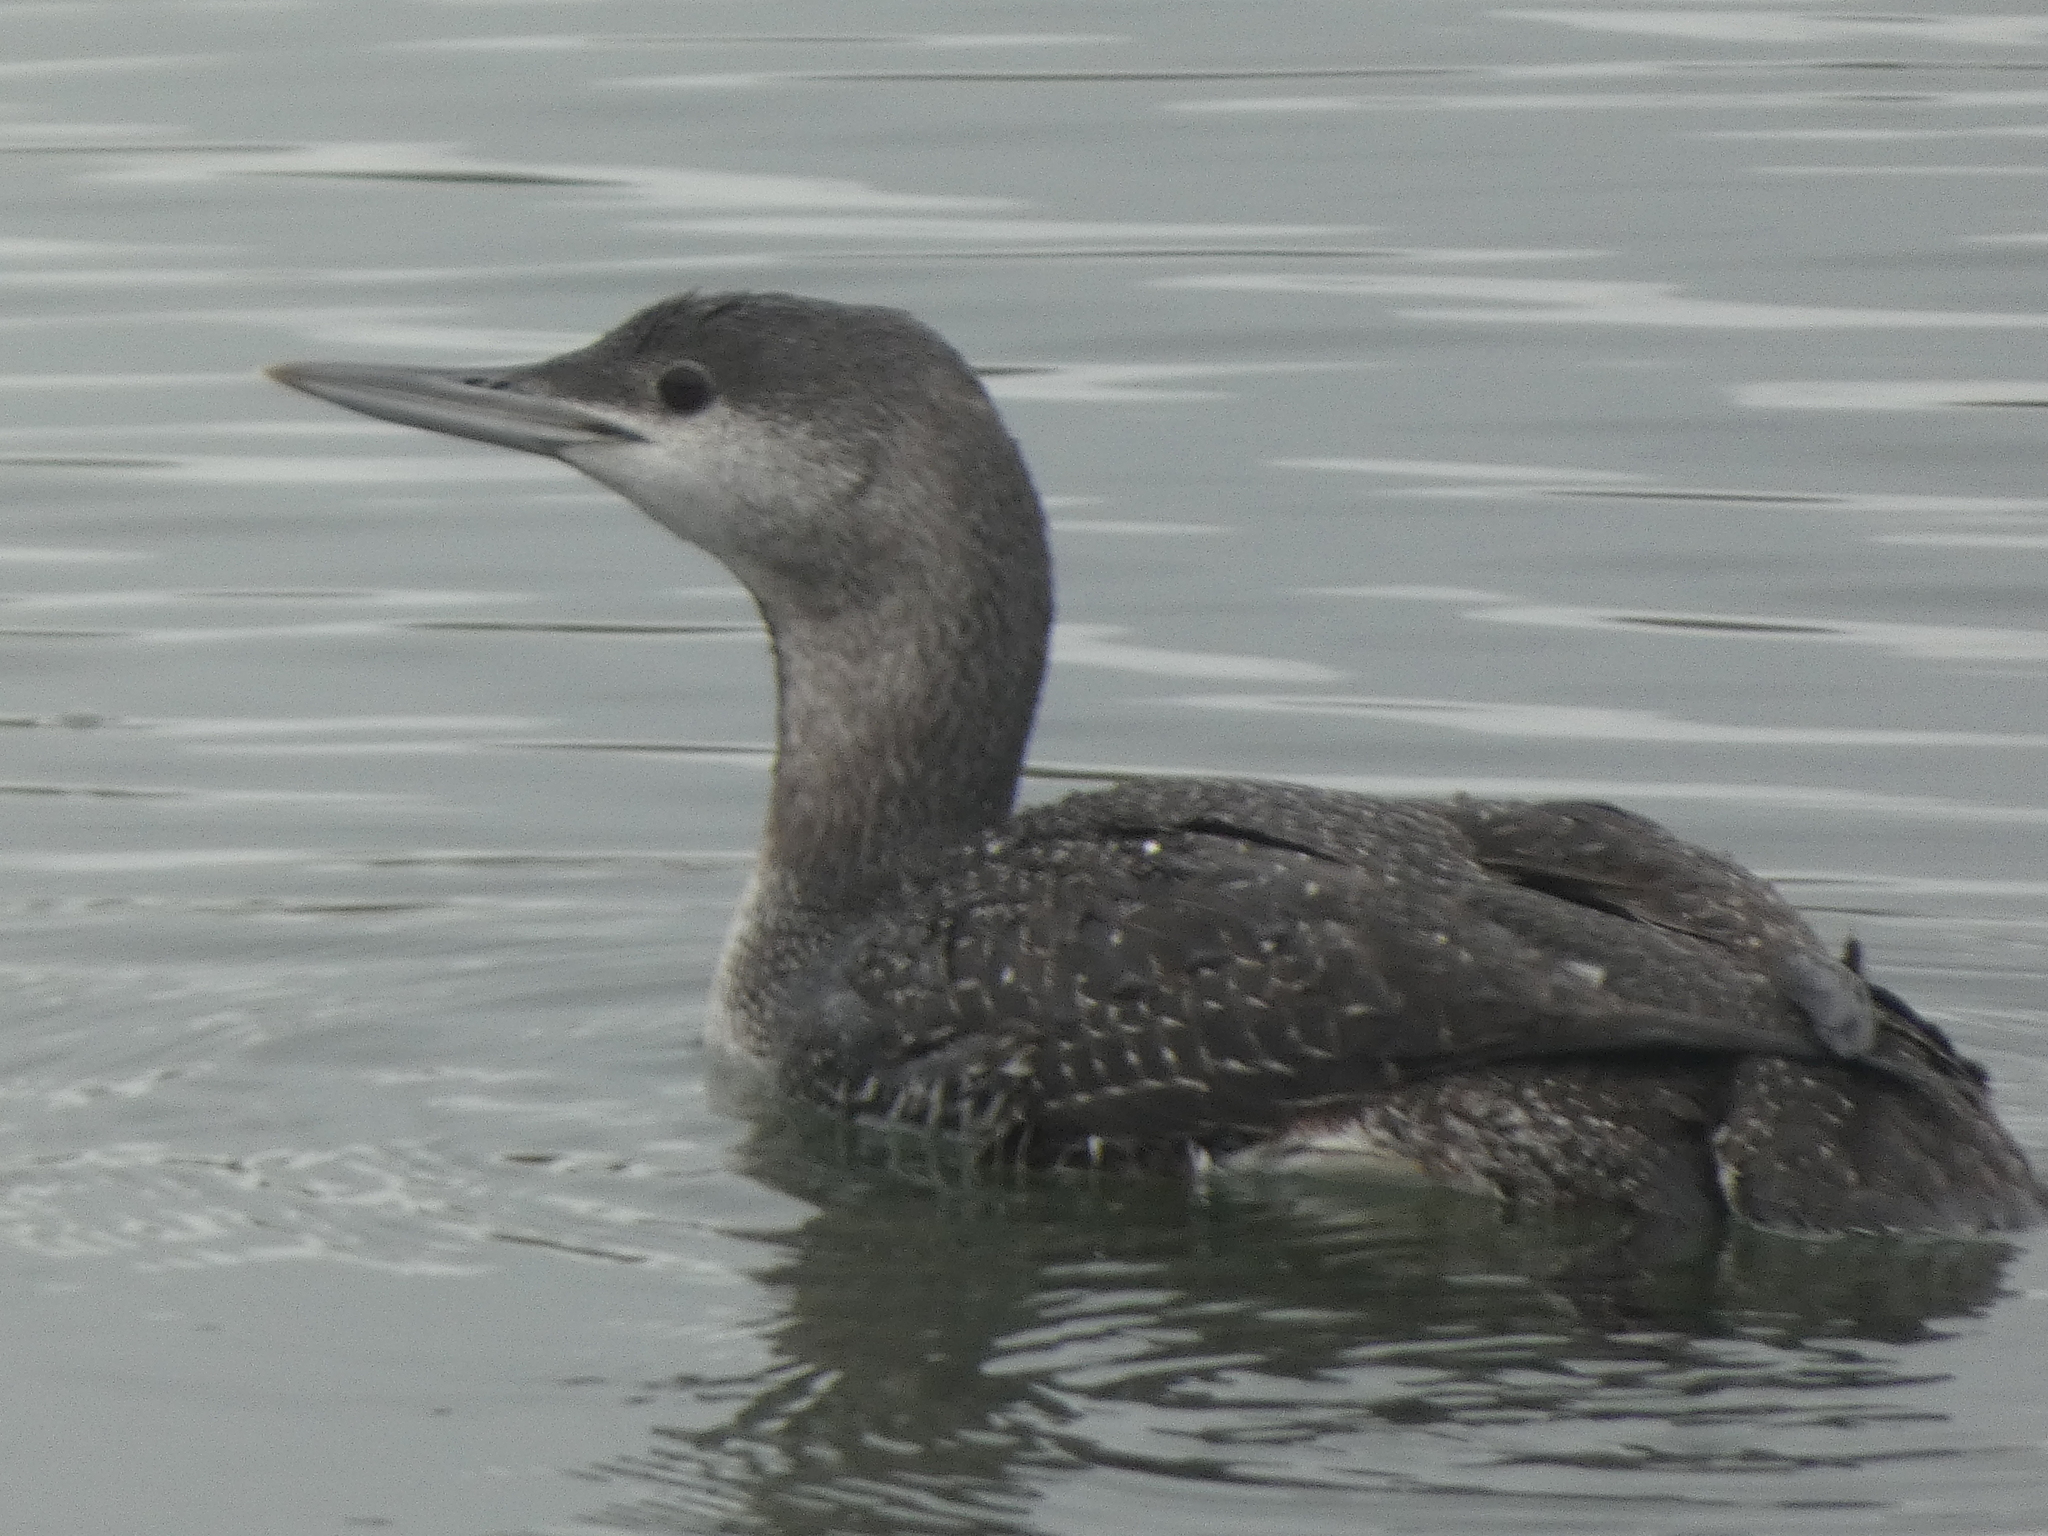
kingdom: Animalia
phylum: Chordata
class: Aves
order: Gaviiformes
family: Gaviidae
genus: Gavia
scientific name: Gavia stellata
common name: Red-throated loon
